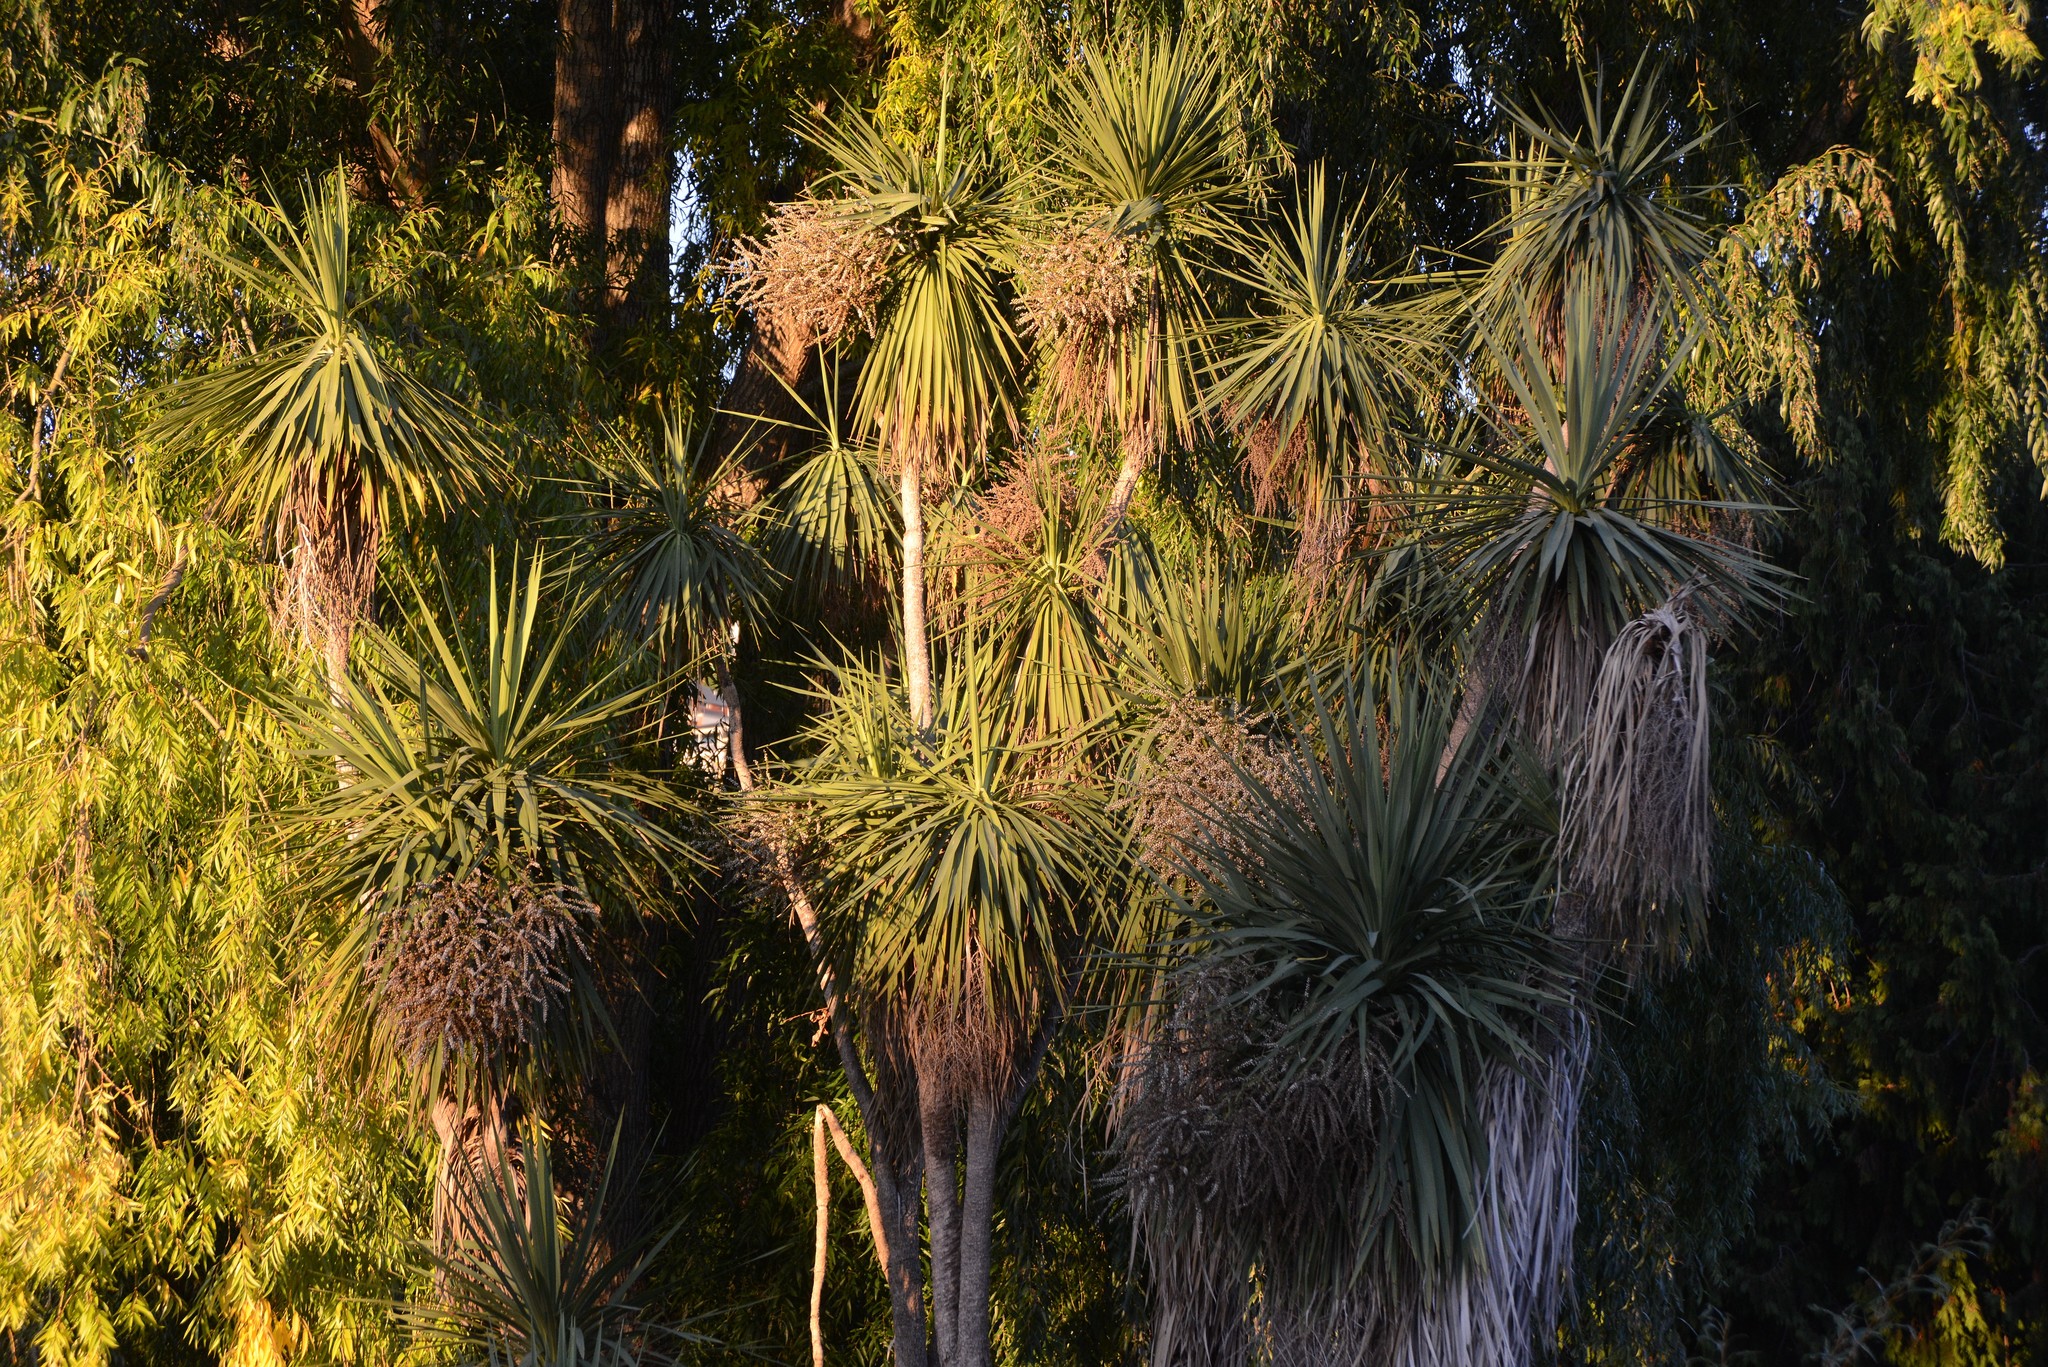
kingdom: Plantae
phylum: Tracheophyta
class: Liliopsida
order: Asparagales
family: Asparagaceae
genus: Cordyline
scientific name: Cordyline australis
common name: Cabbage-palm
